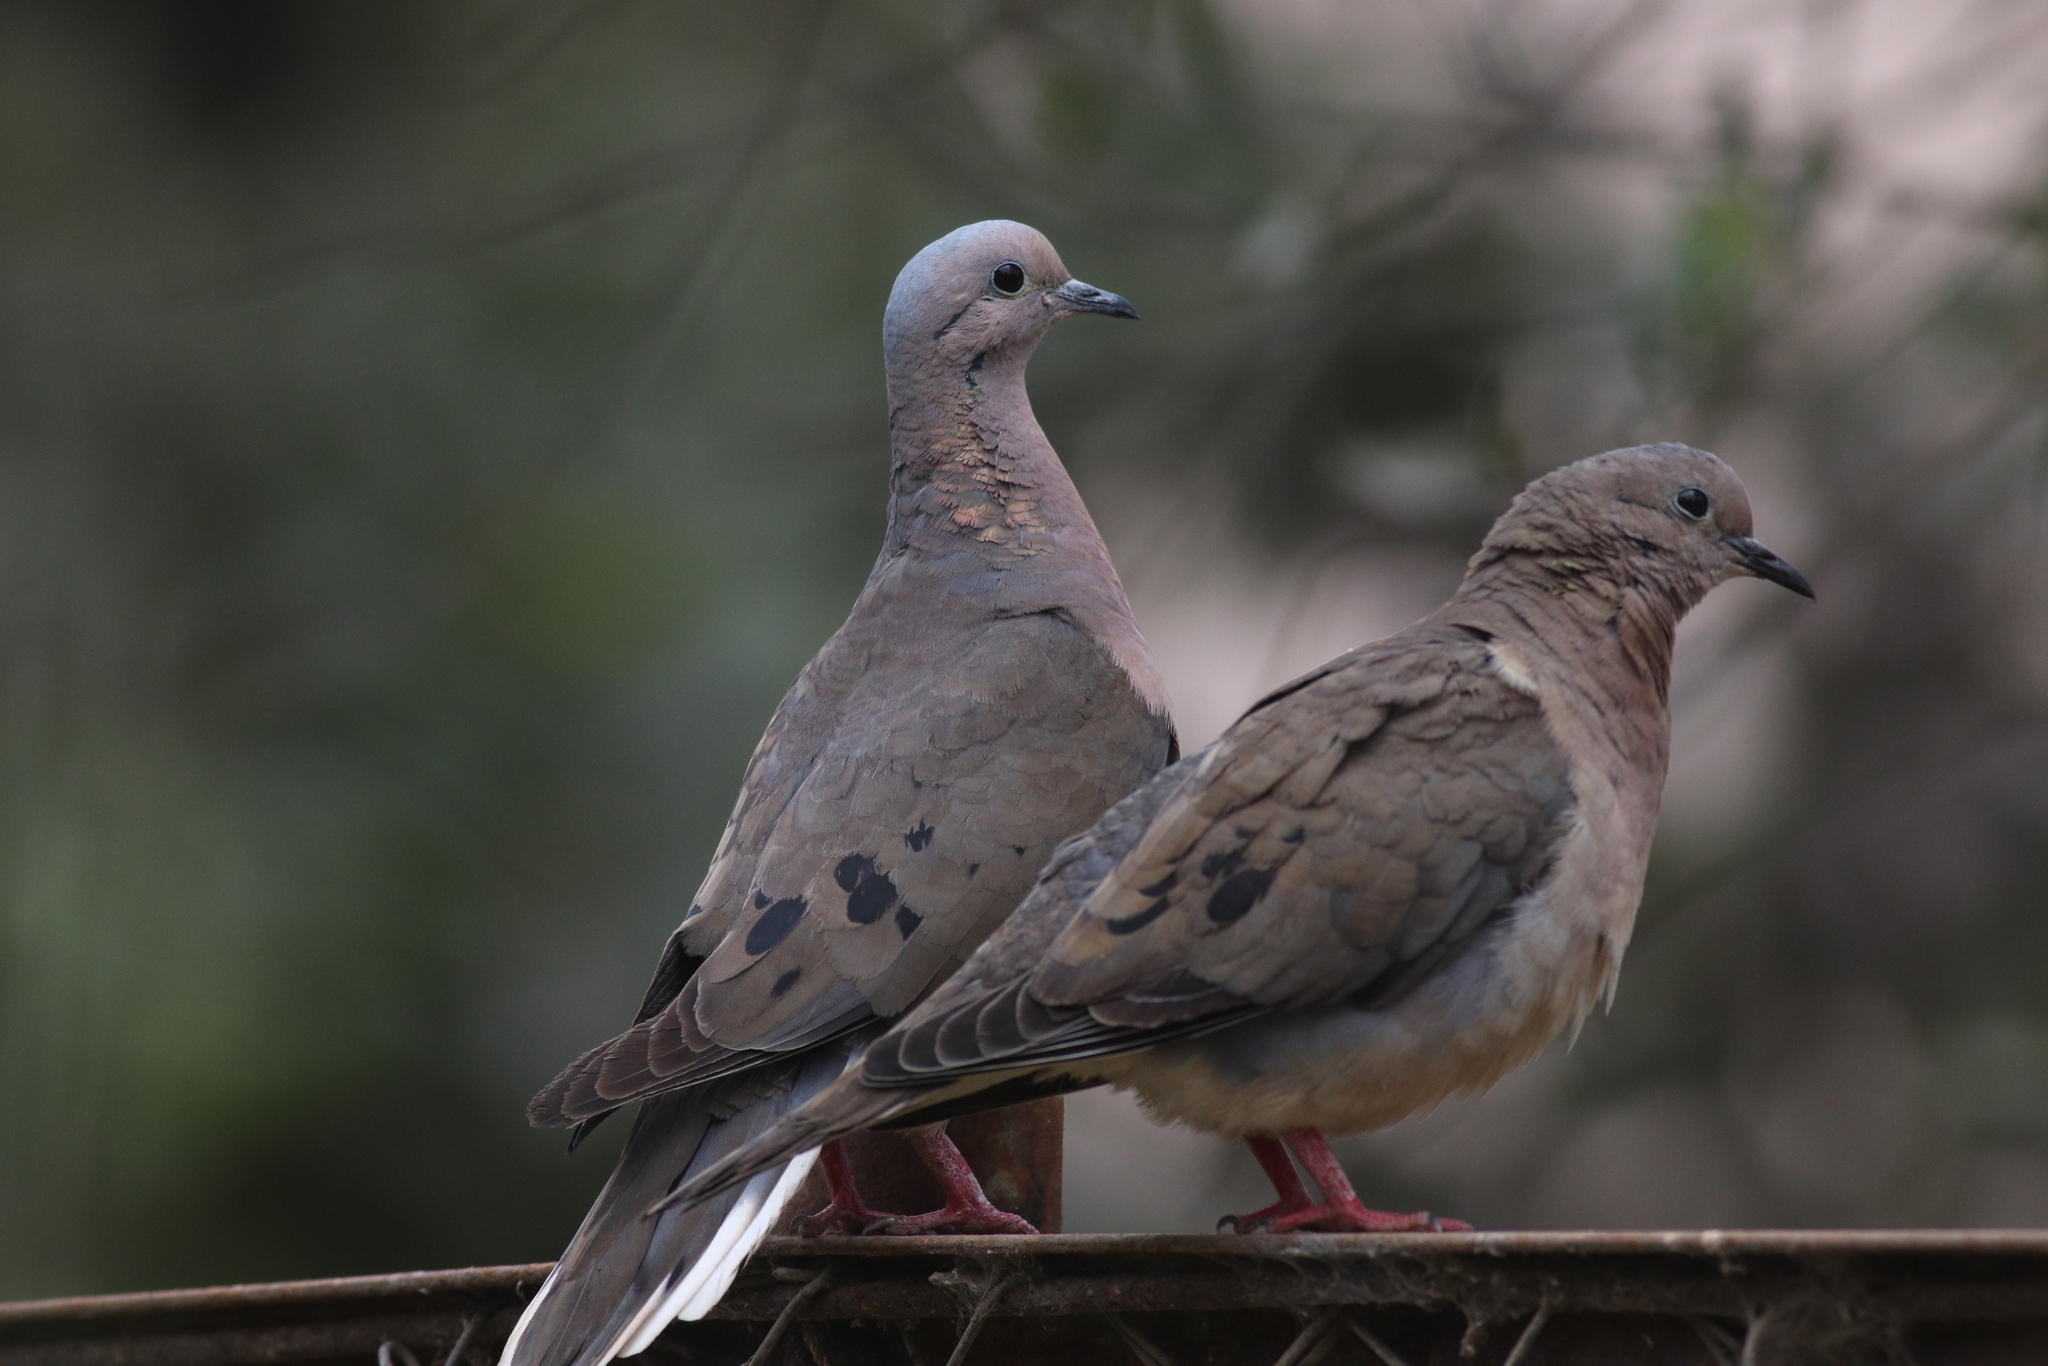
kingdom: Animalia
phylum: Chordata
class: Aves
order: Columbiformes
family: Columbidae
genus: Zenaida
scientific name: Zenaida auriculata
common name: Eared dove
